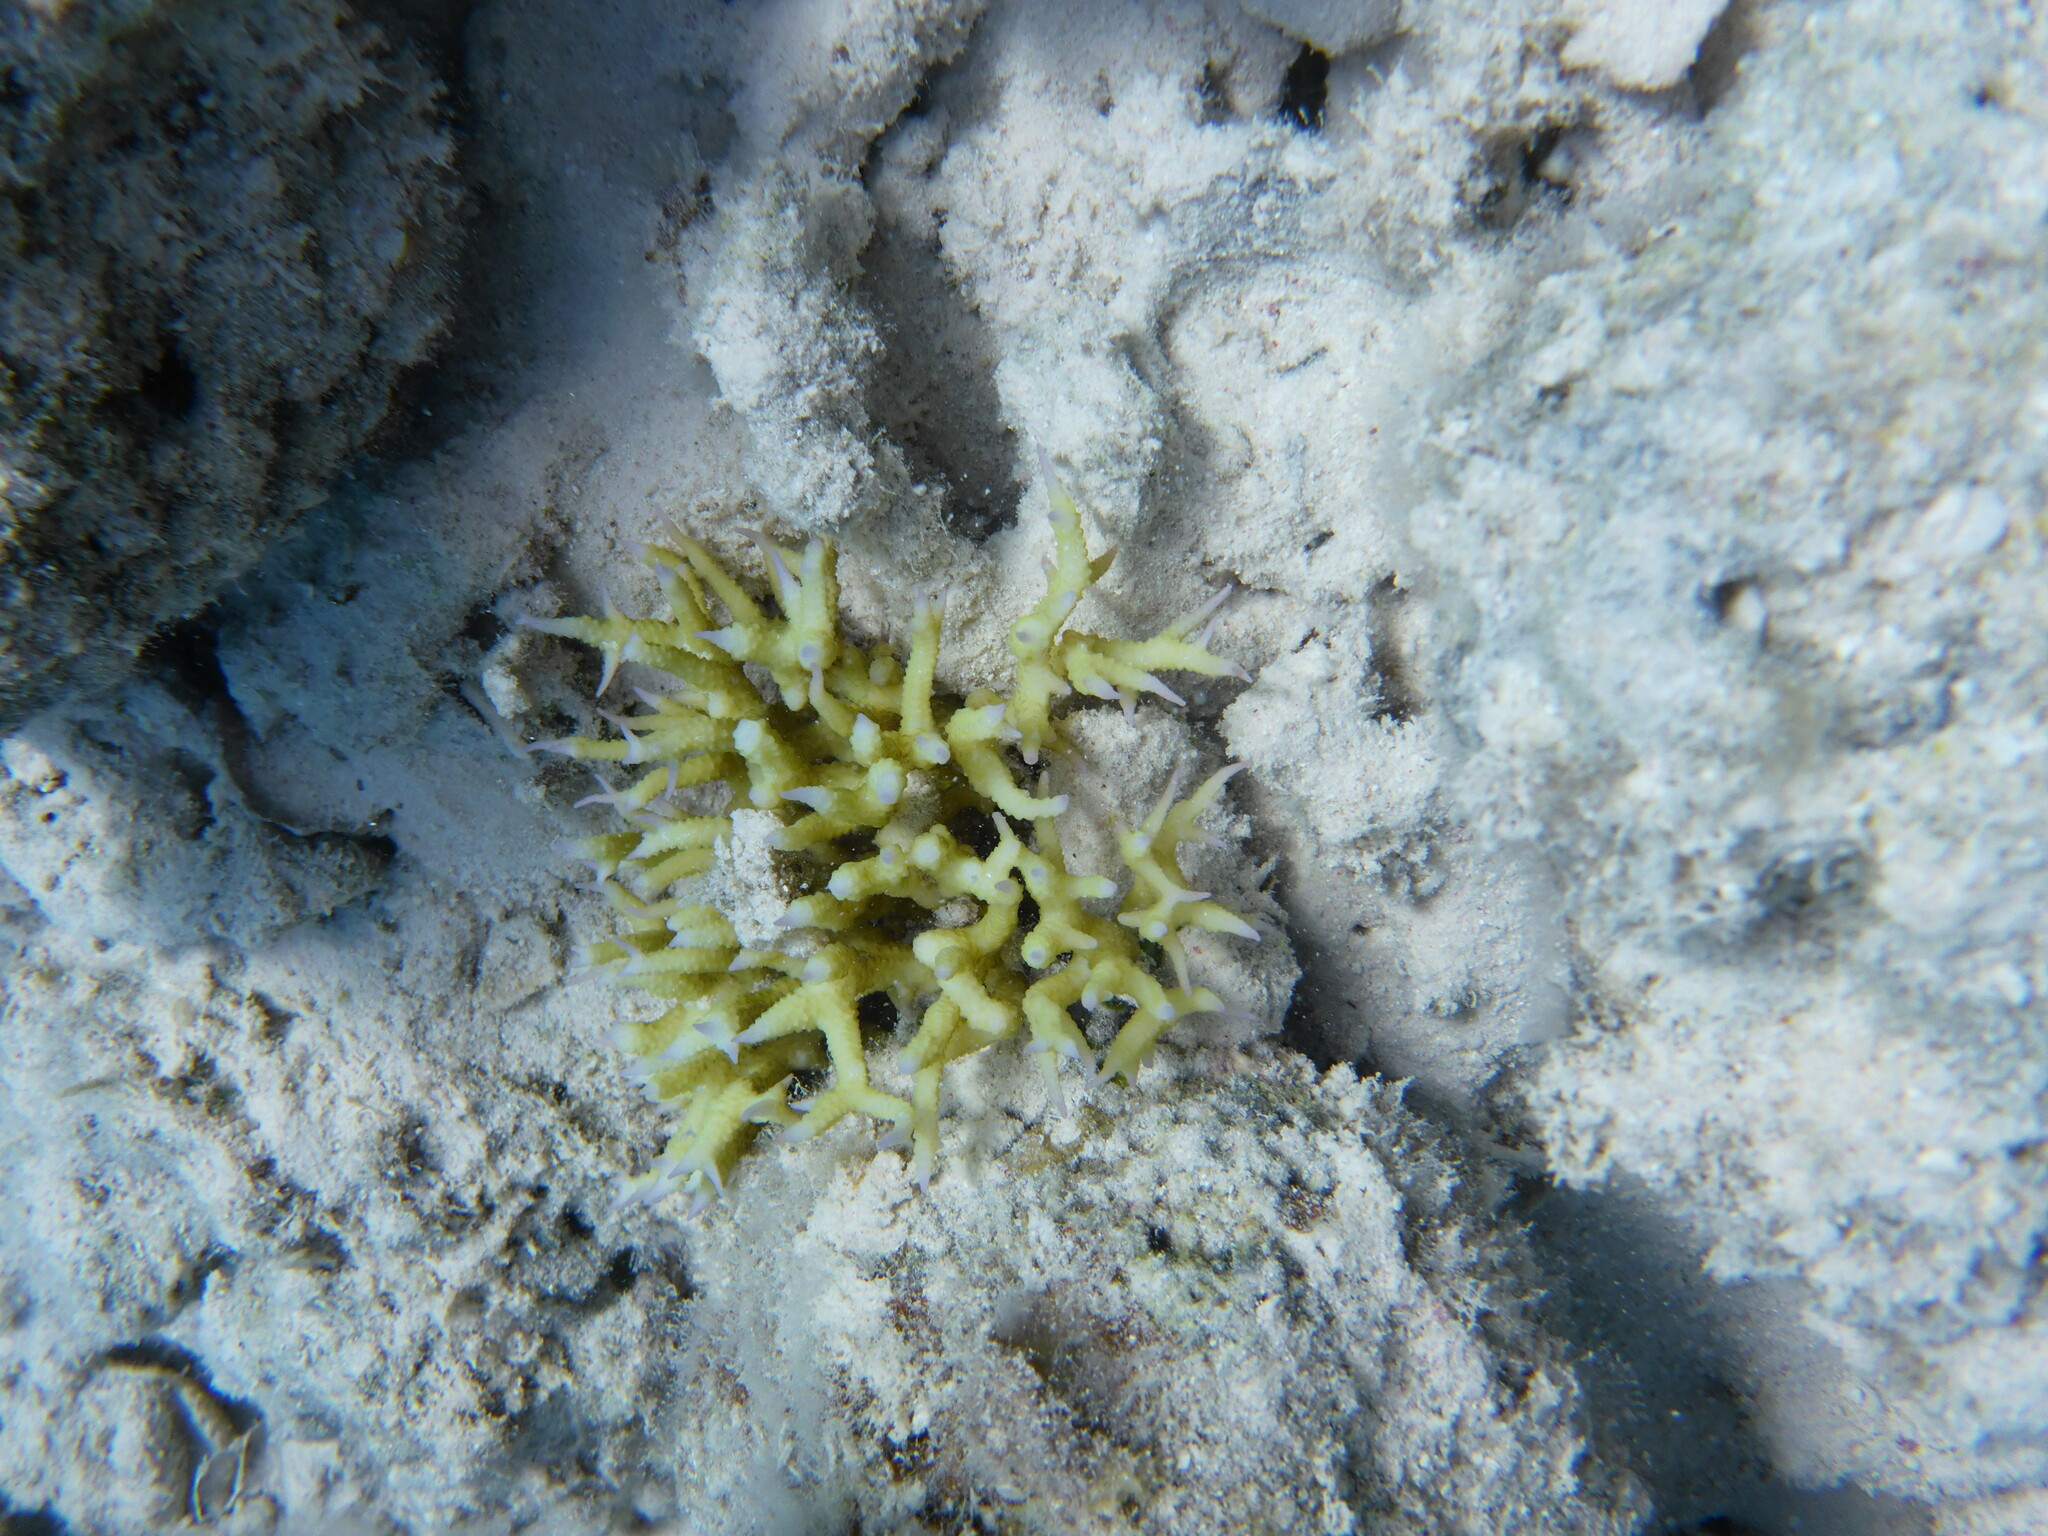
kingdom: Animalia
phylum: Cnidaria
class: Anthozoa
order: Scleractinia
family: Pocilloporidae
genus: Seriatopora
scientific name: Seriatopora hystrix
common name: Bush coral
